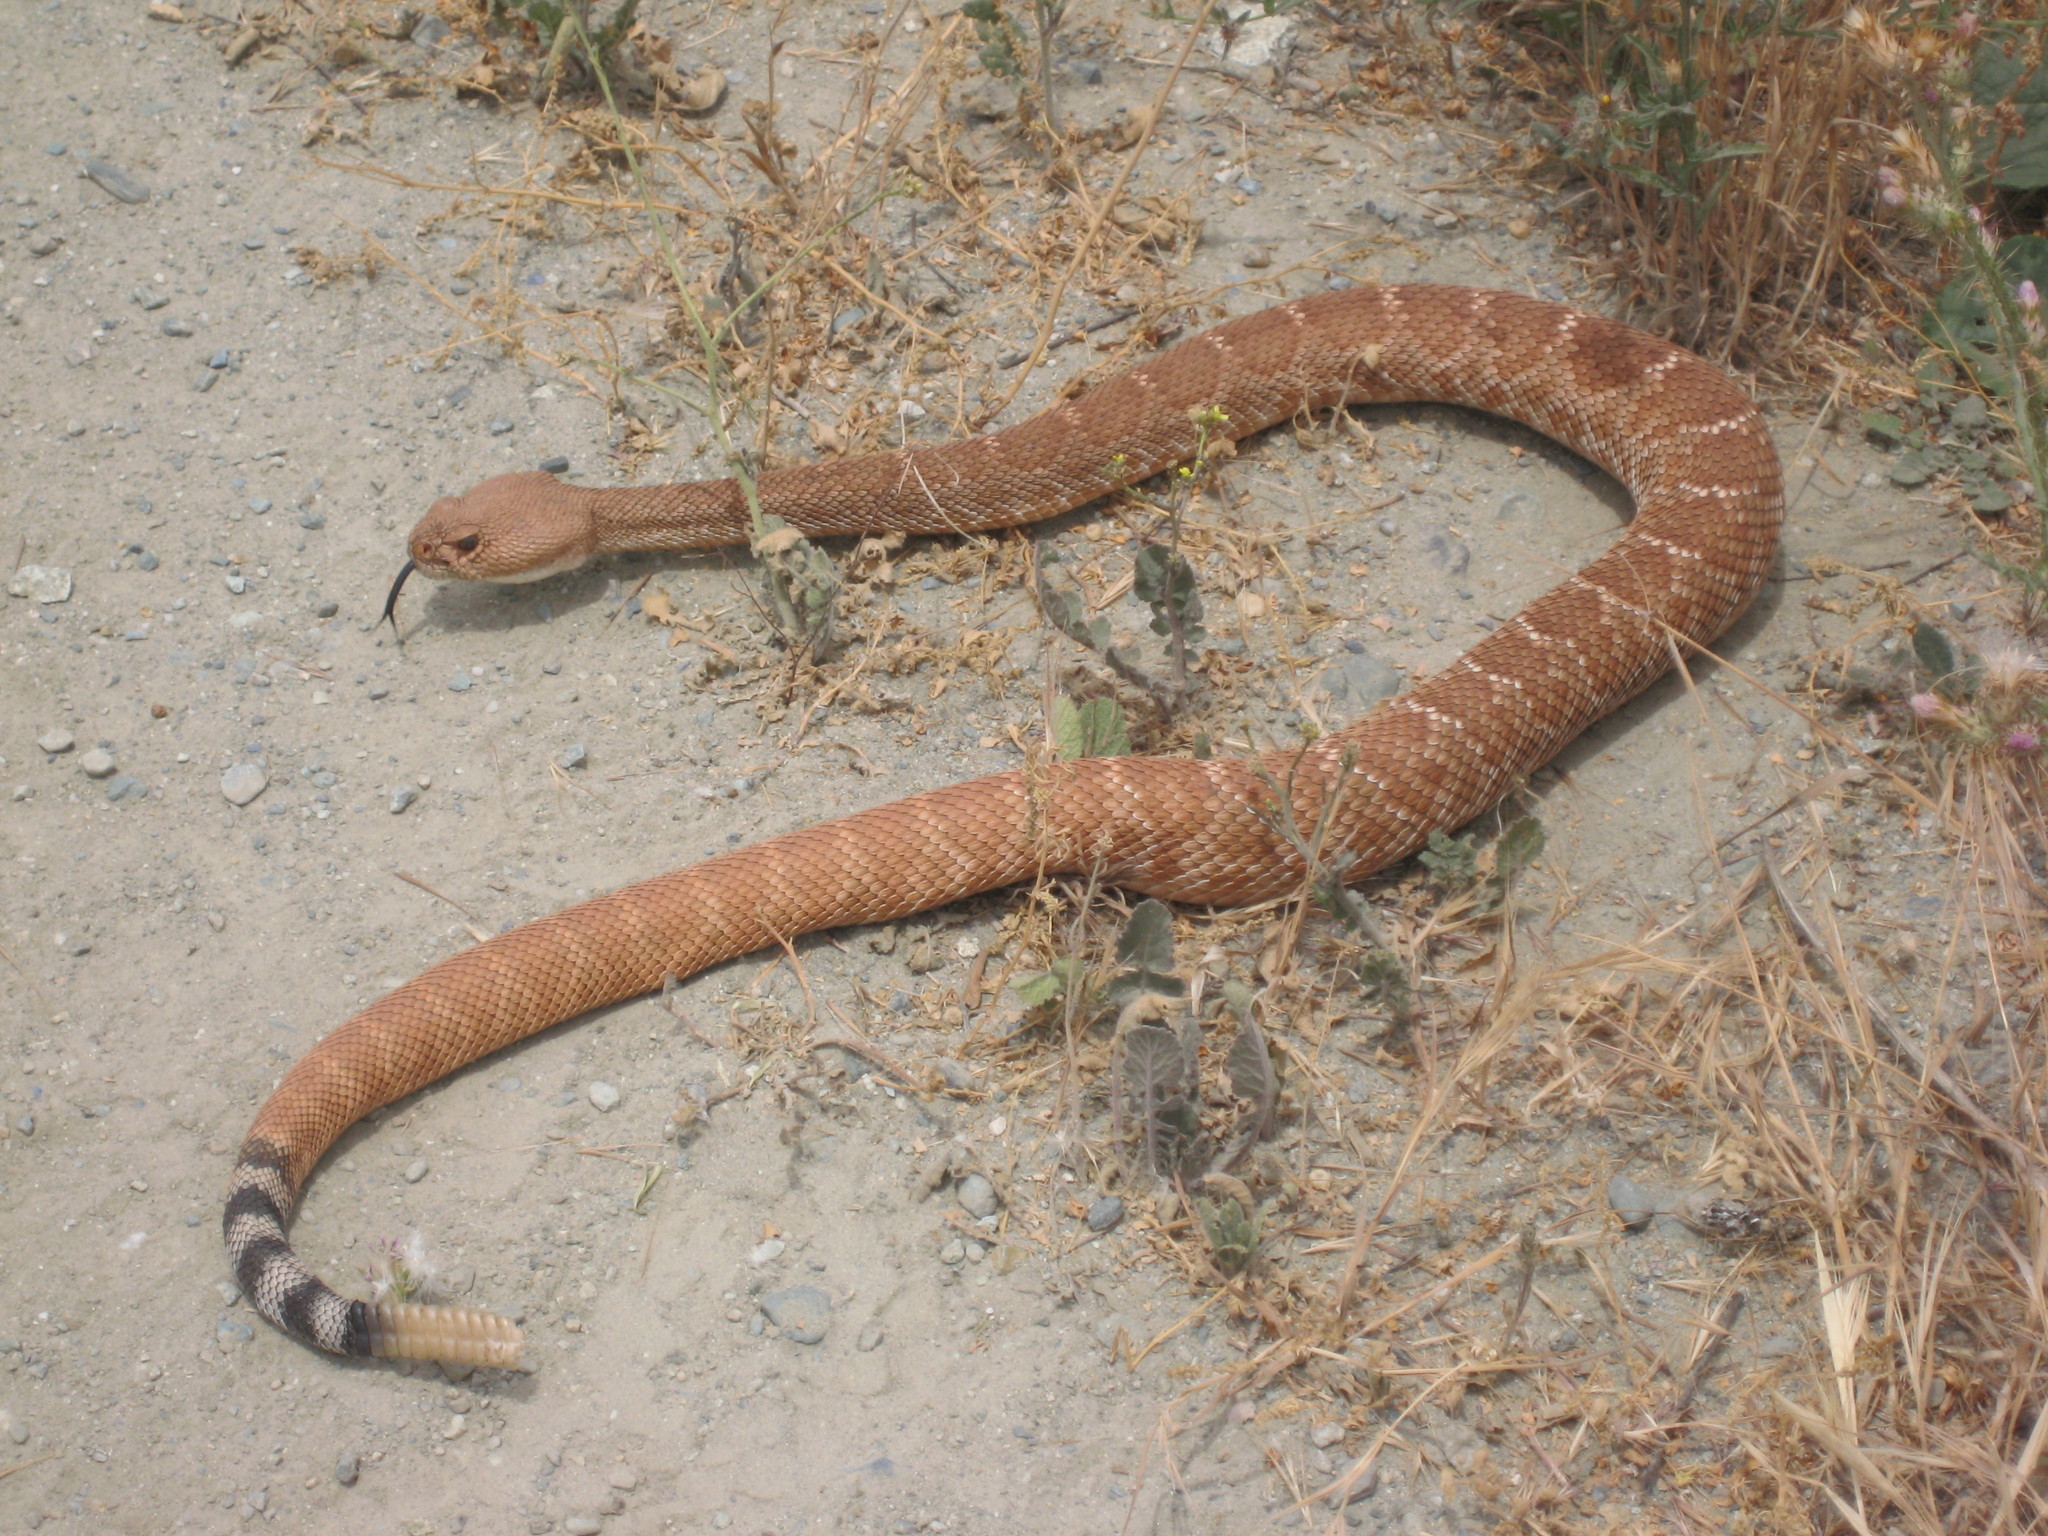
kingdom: Animalia
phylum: Chordata
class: Squamata
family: Viperidae
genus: Crotalus
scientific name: Crotalus ruber
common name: Red diamond rattlesnake
